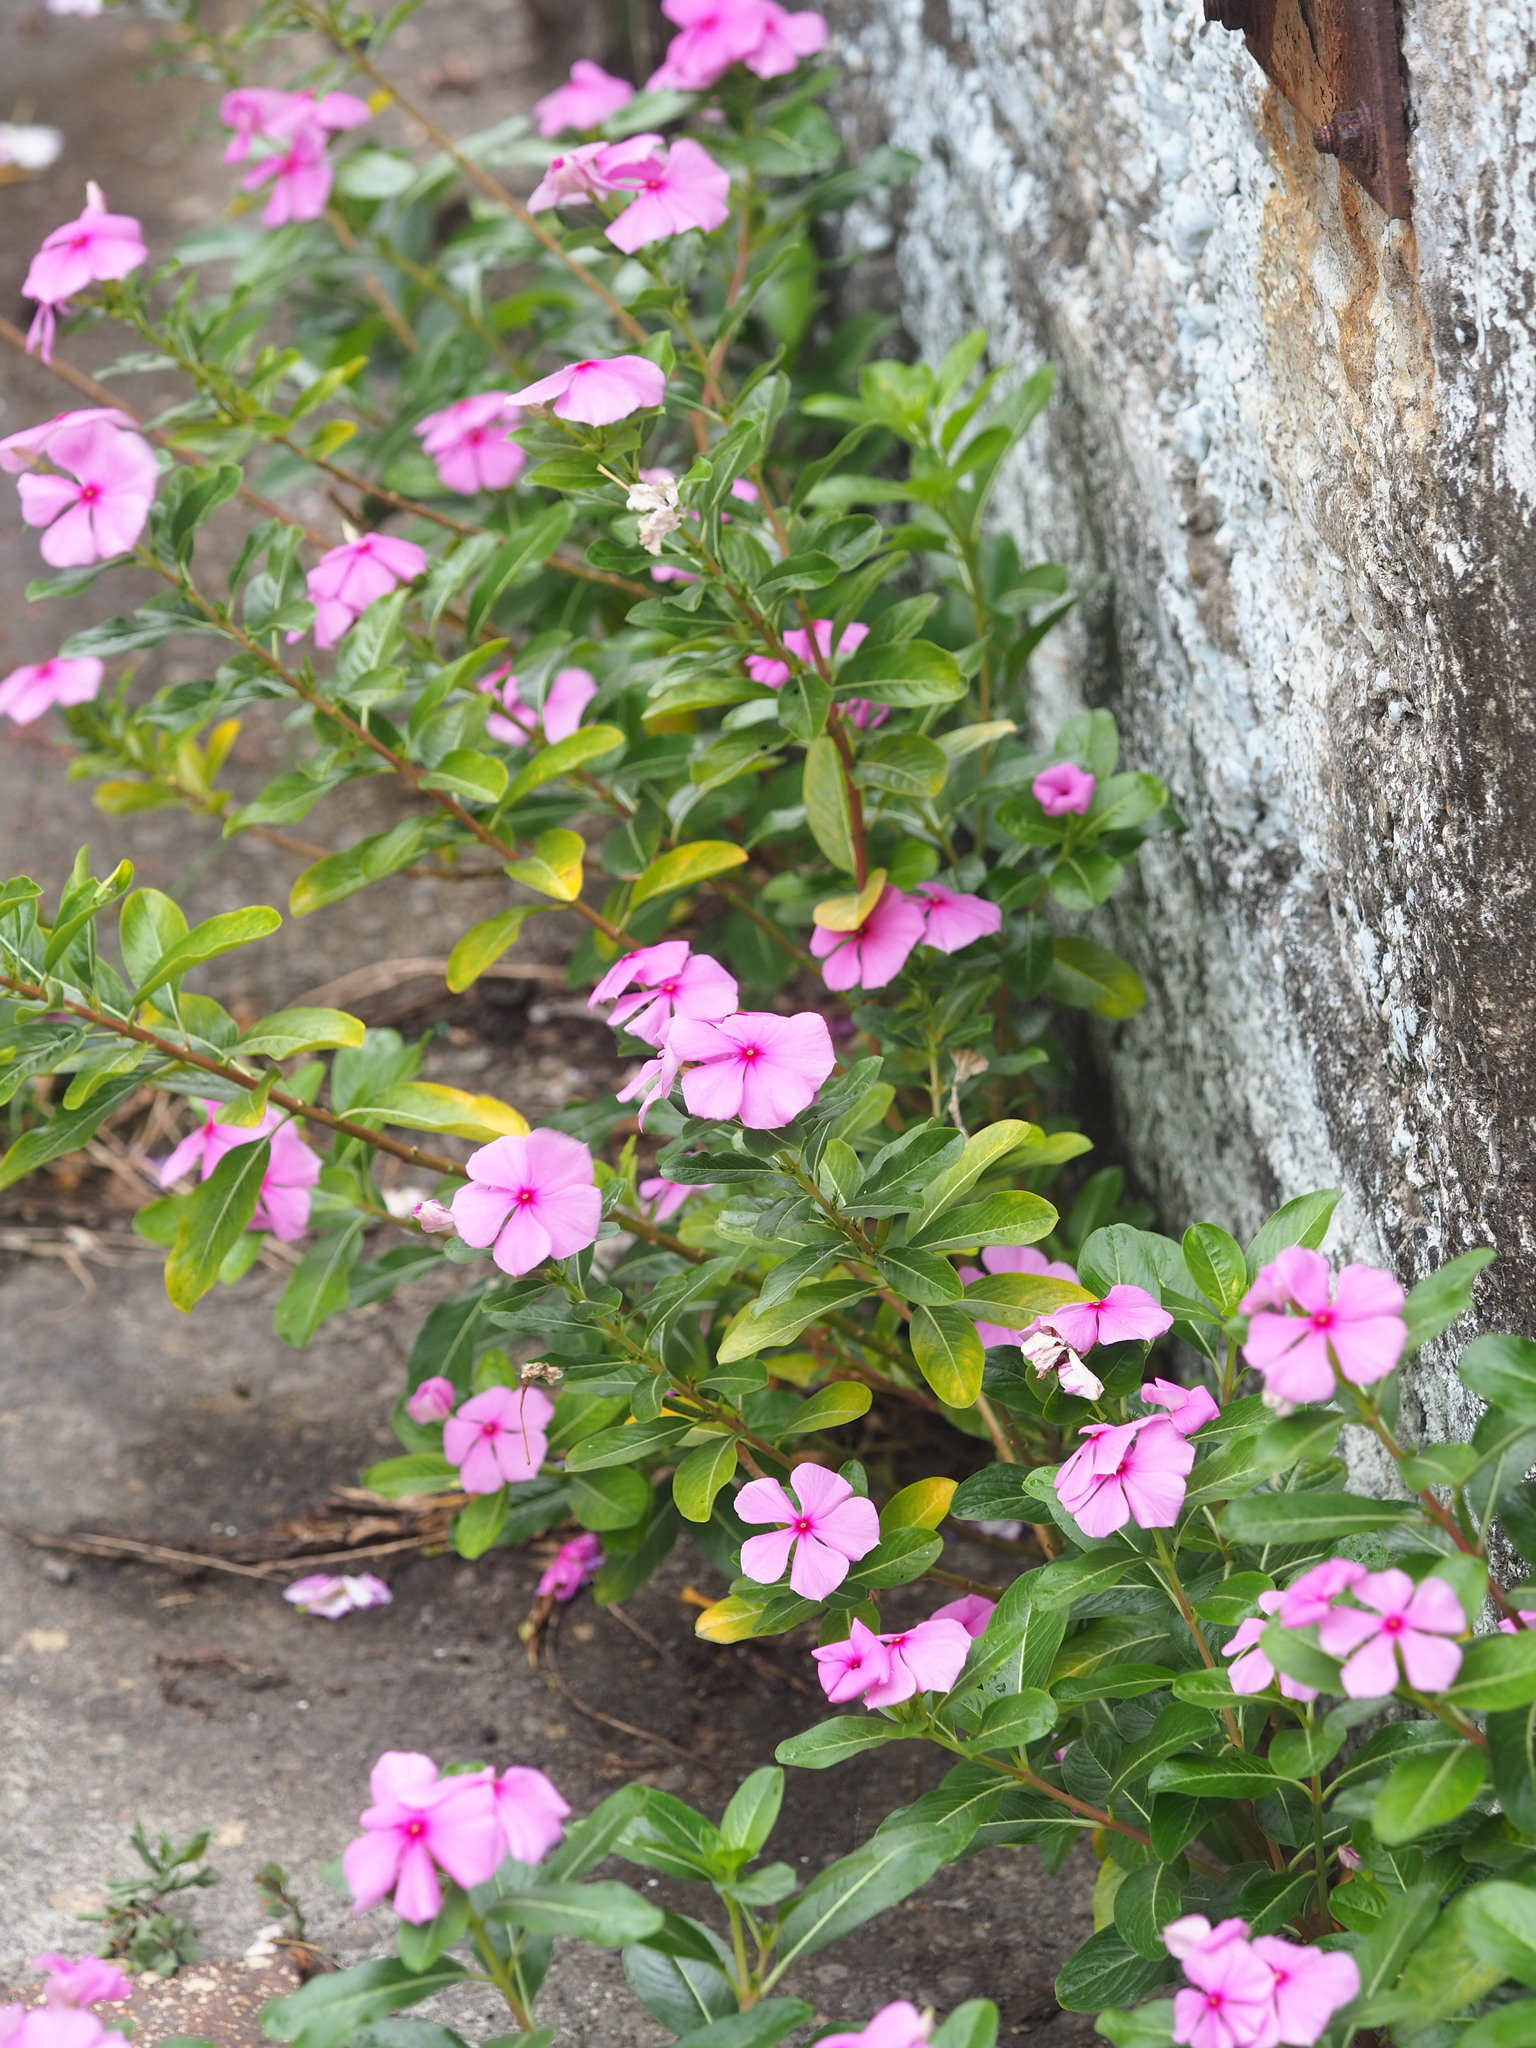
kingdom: Plantae
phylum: Tracheophyta
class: Magnoliopsida
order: Gentianales
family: Apocynaceae
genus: Catharanthus
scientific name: Catharanthus roseus
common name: Madagascar periwinkle
